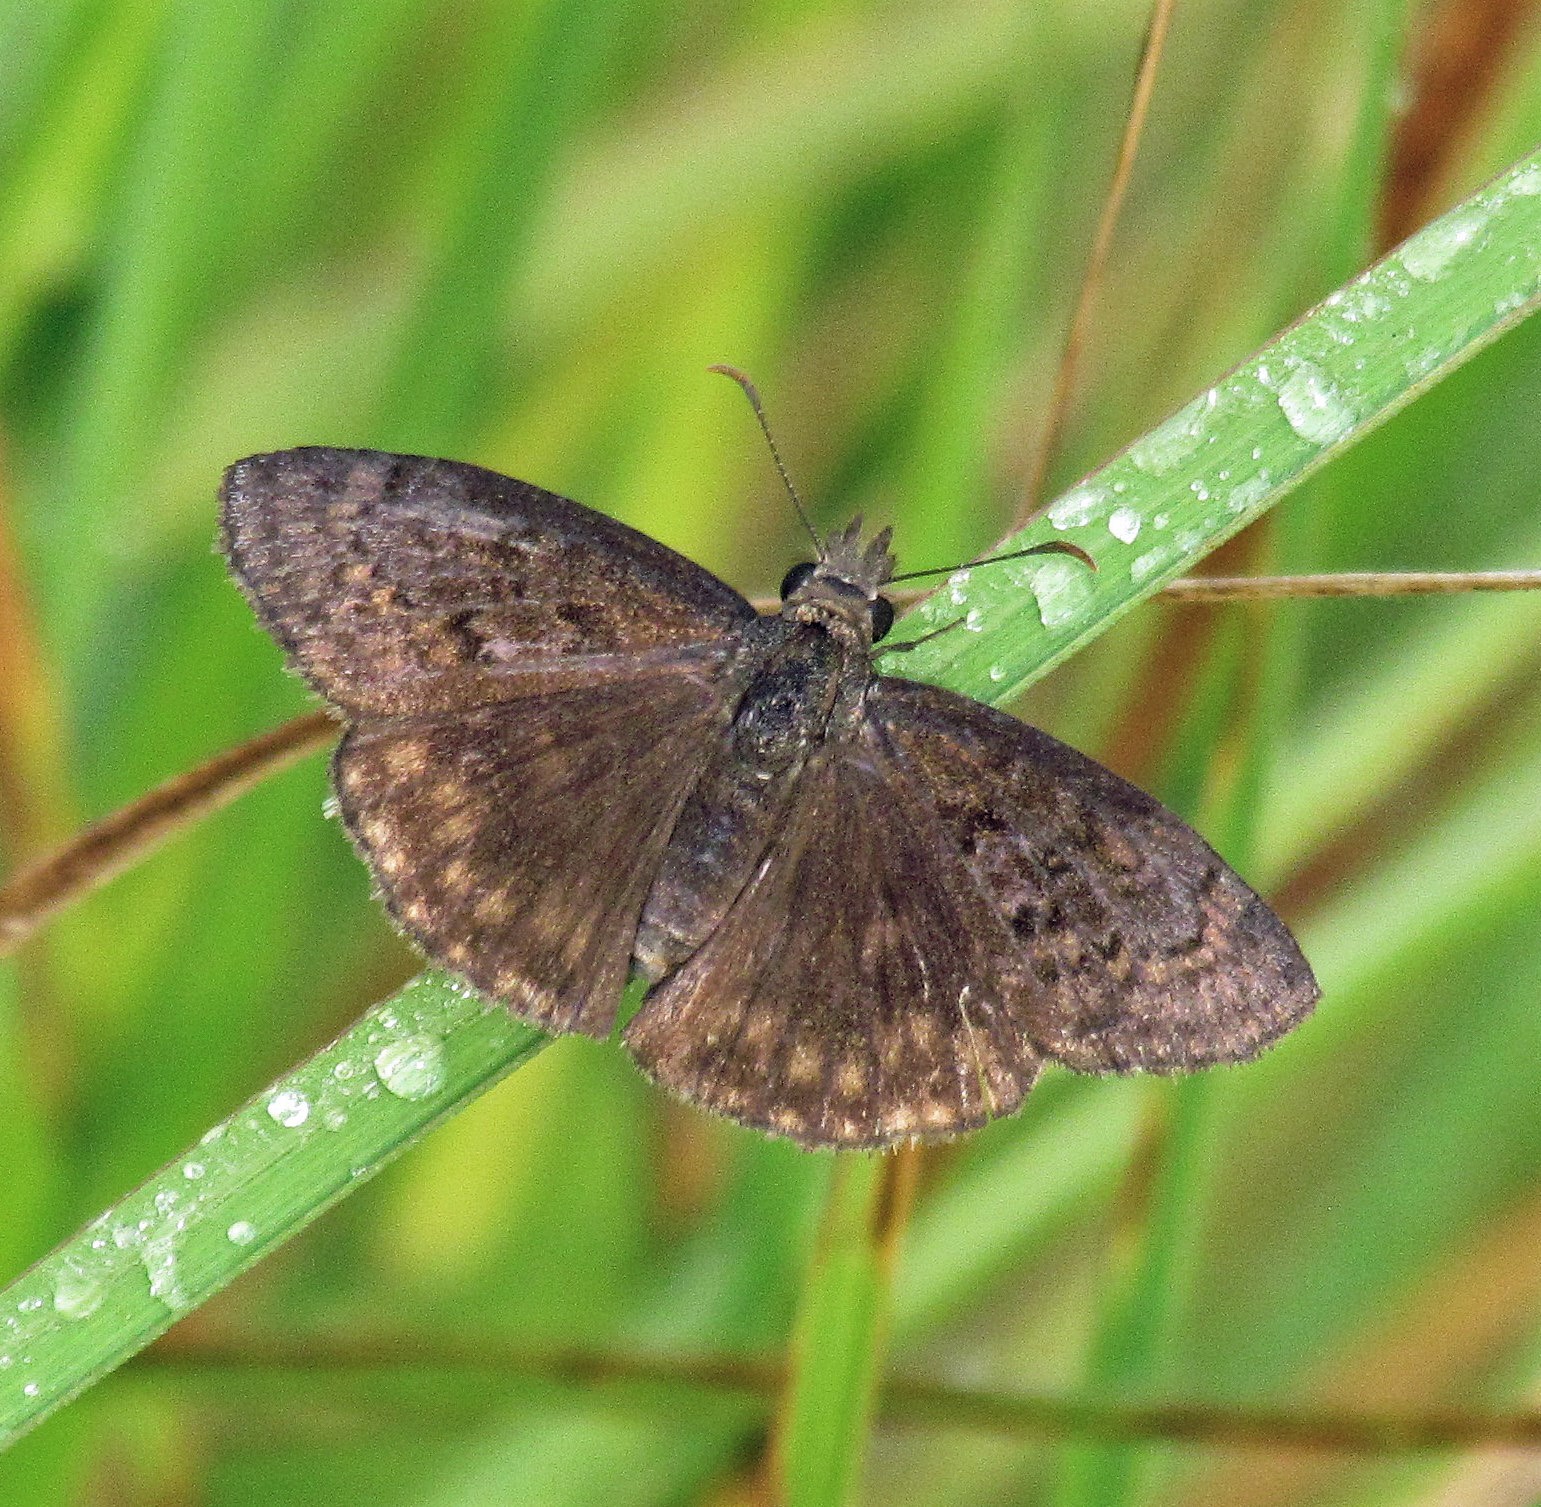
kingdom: Animalia
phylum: Arthropoda
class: Insecta
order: Lepidoptera
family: Hesperiidae
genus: Gesta
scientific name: Gesta austerus
